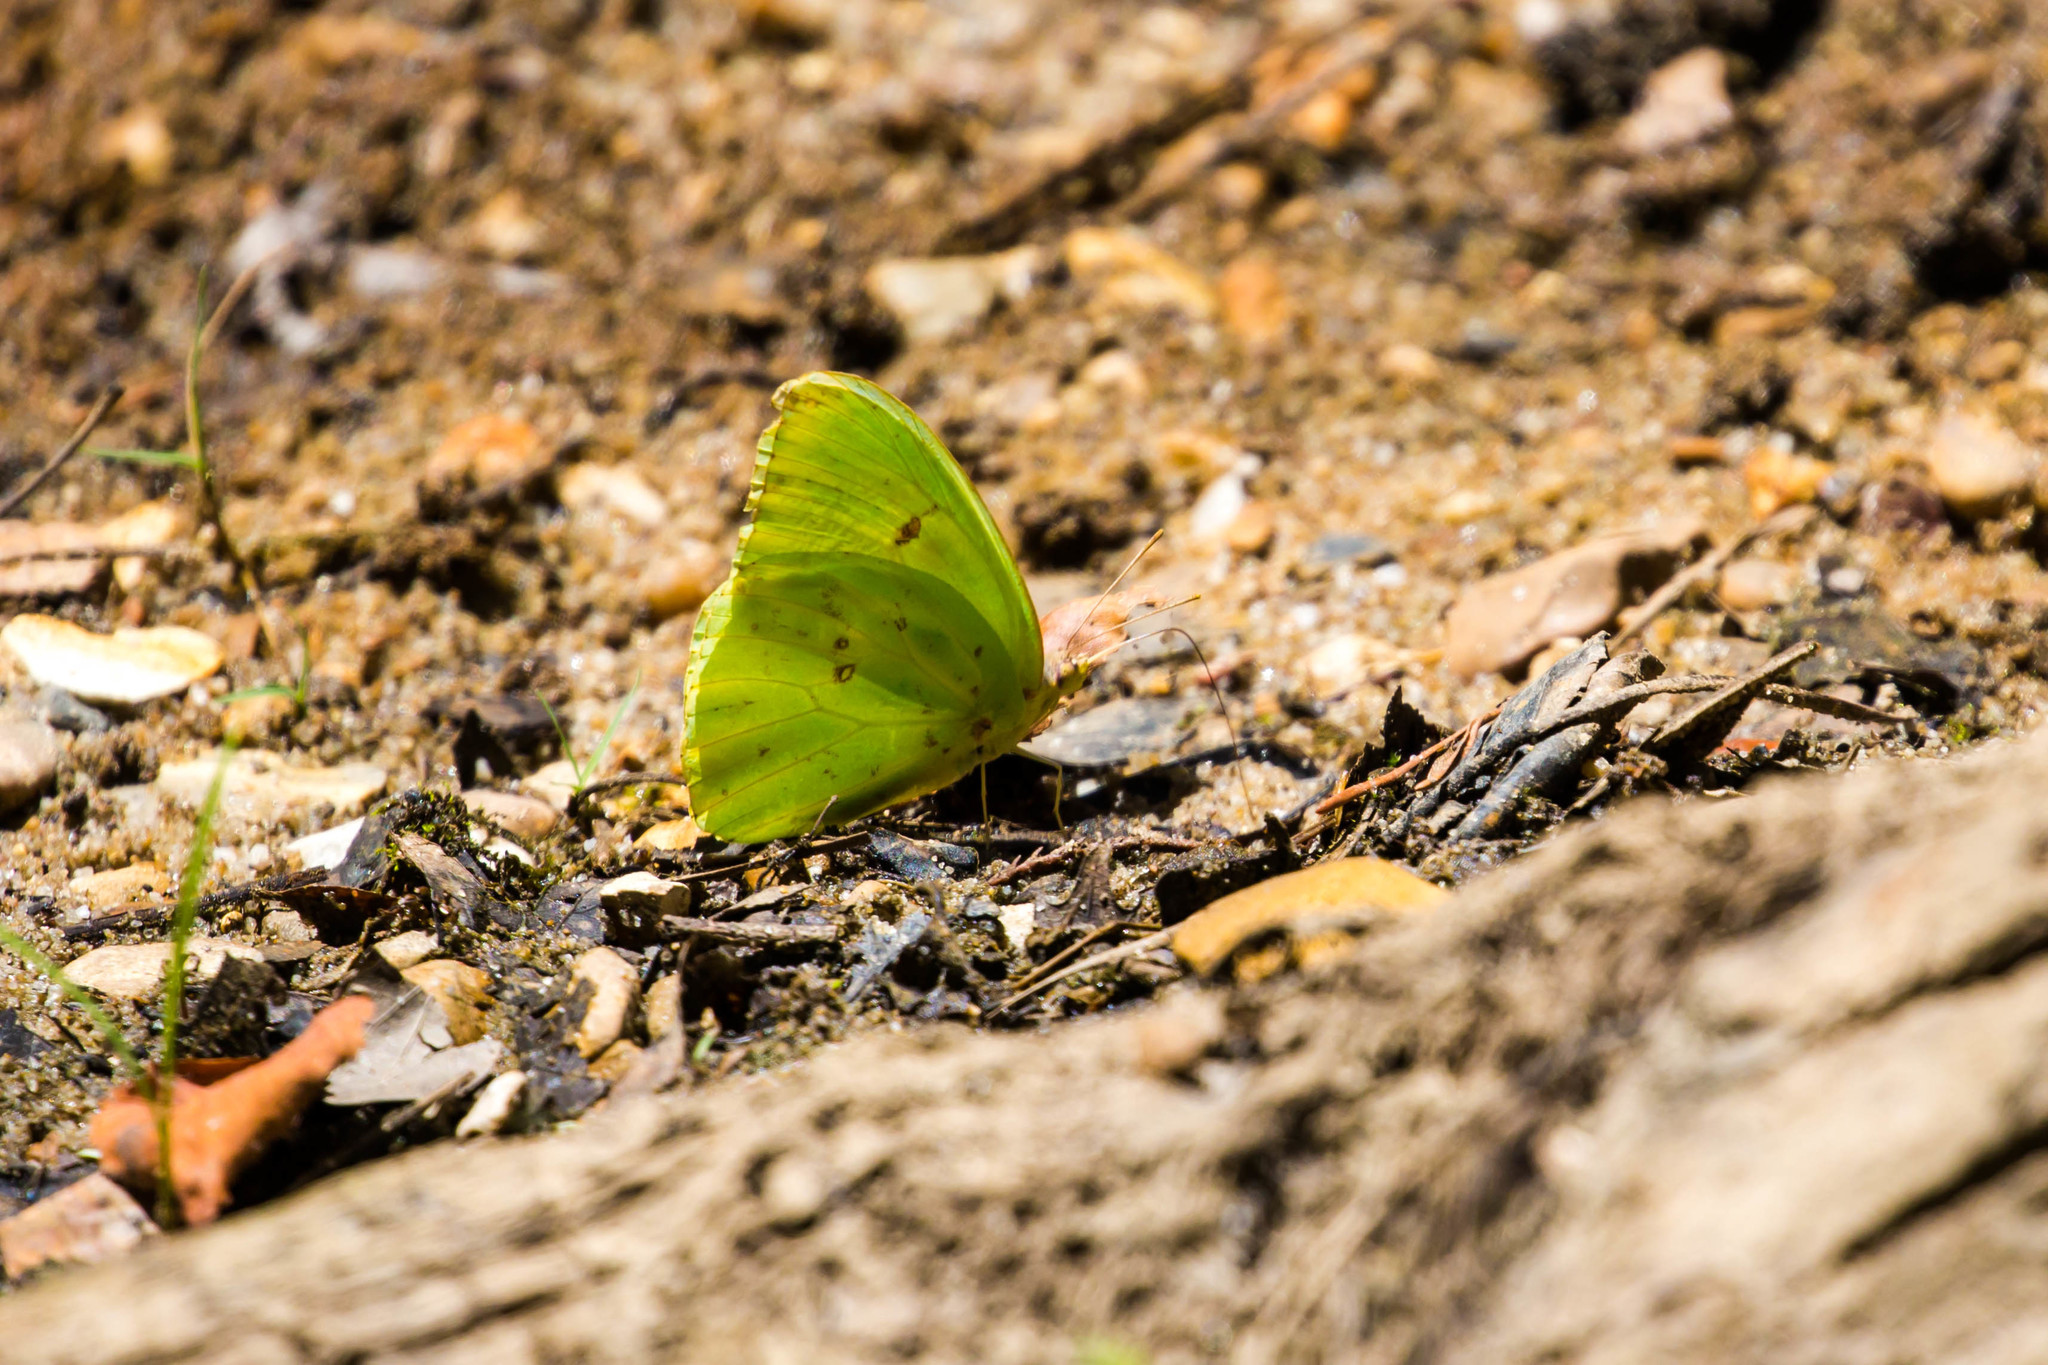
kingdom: Animalia
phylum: Arthropoda
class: Insecta
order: Lepidoptera
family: Pieridae
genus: Phoebis
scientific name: Phoebis sennae
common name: Cloudless sulphur
